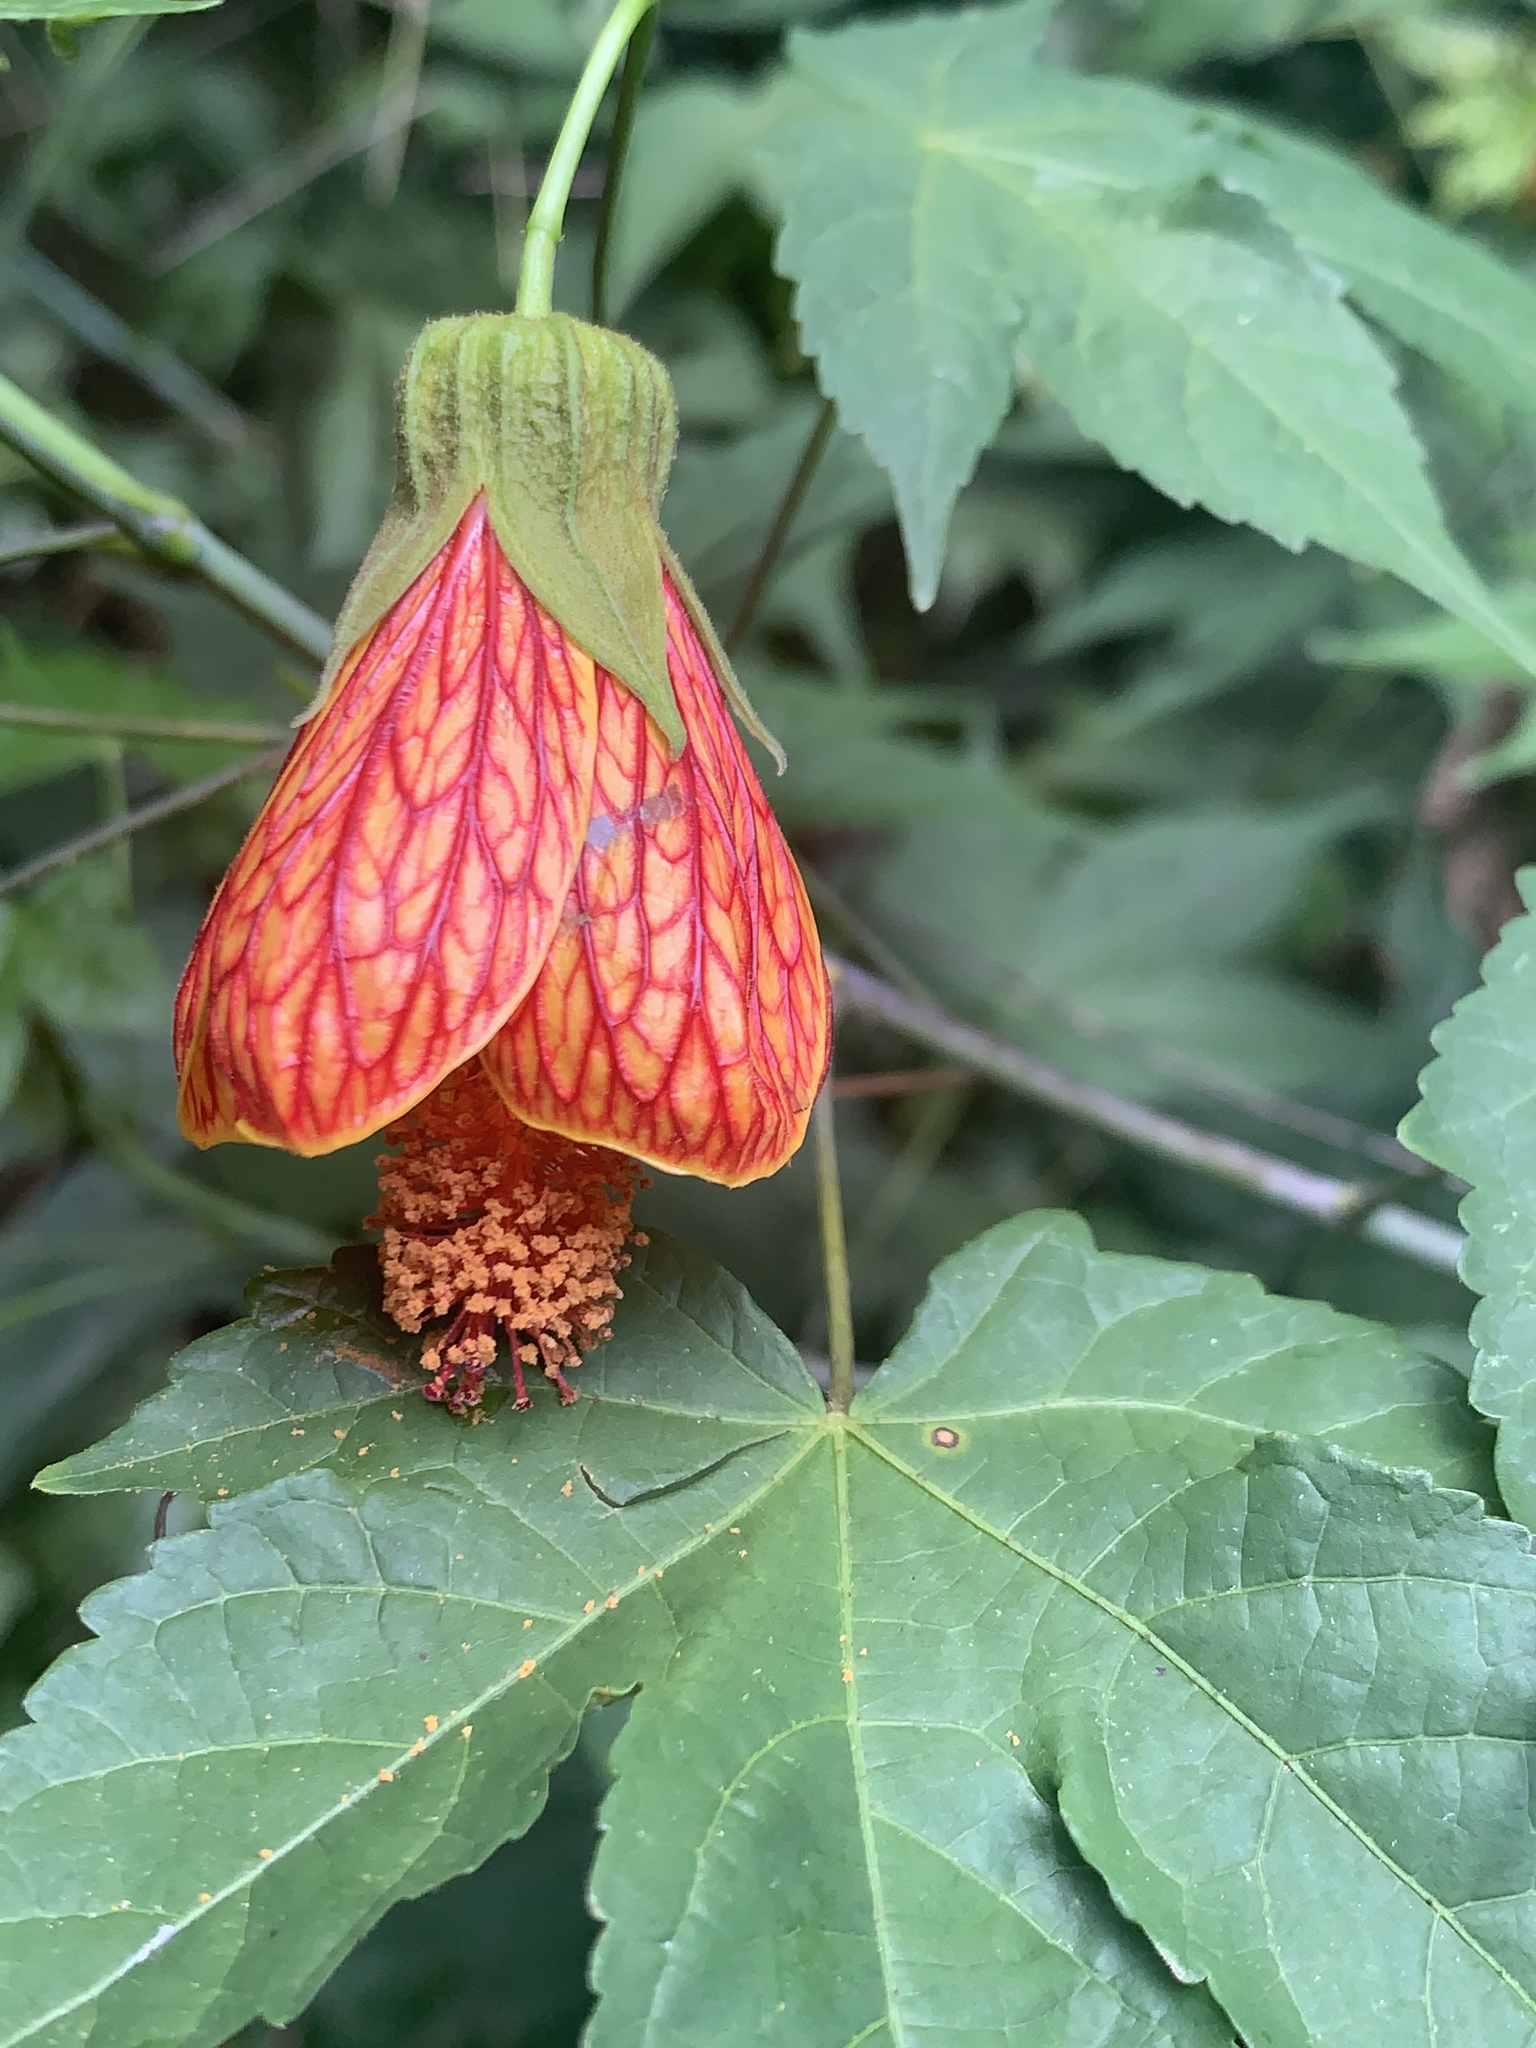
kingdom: Plantae
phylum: Tracheophyta
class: Magnoliopsida
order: Malvales
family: Malvaceae
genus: Callianthe
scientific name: Callianthe picta
